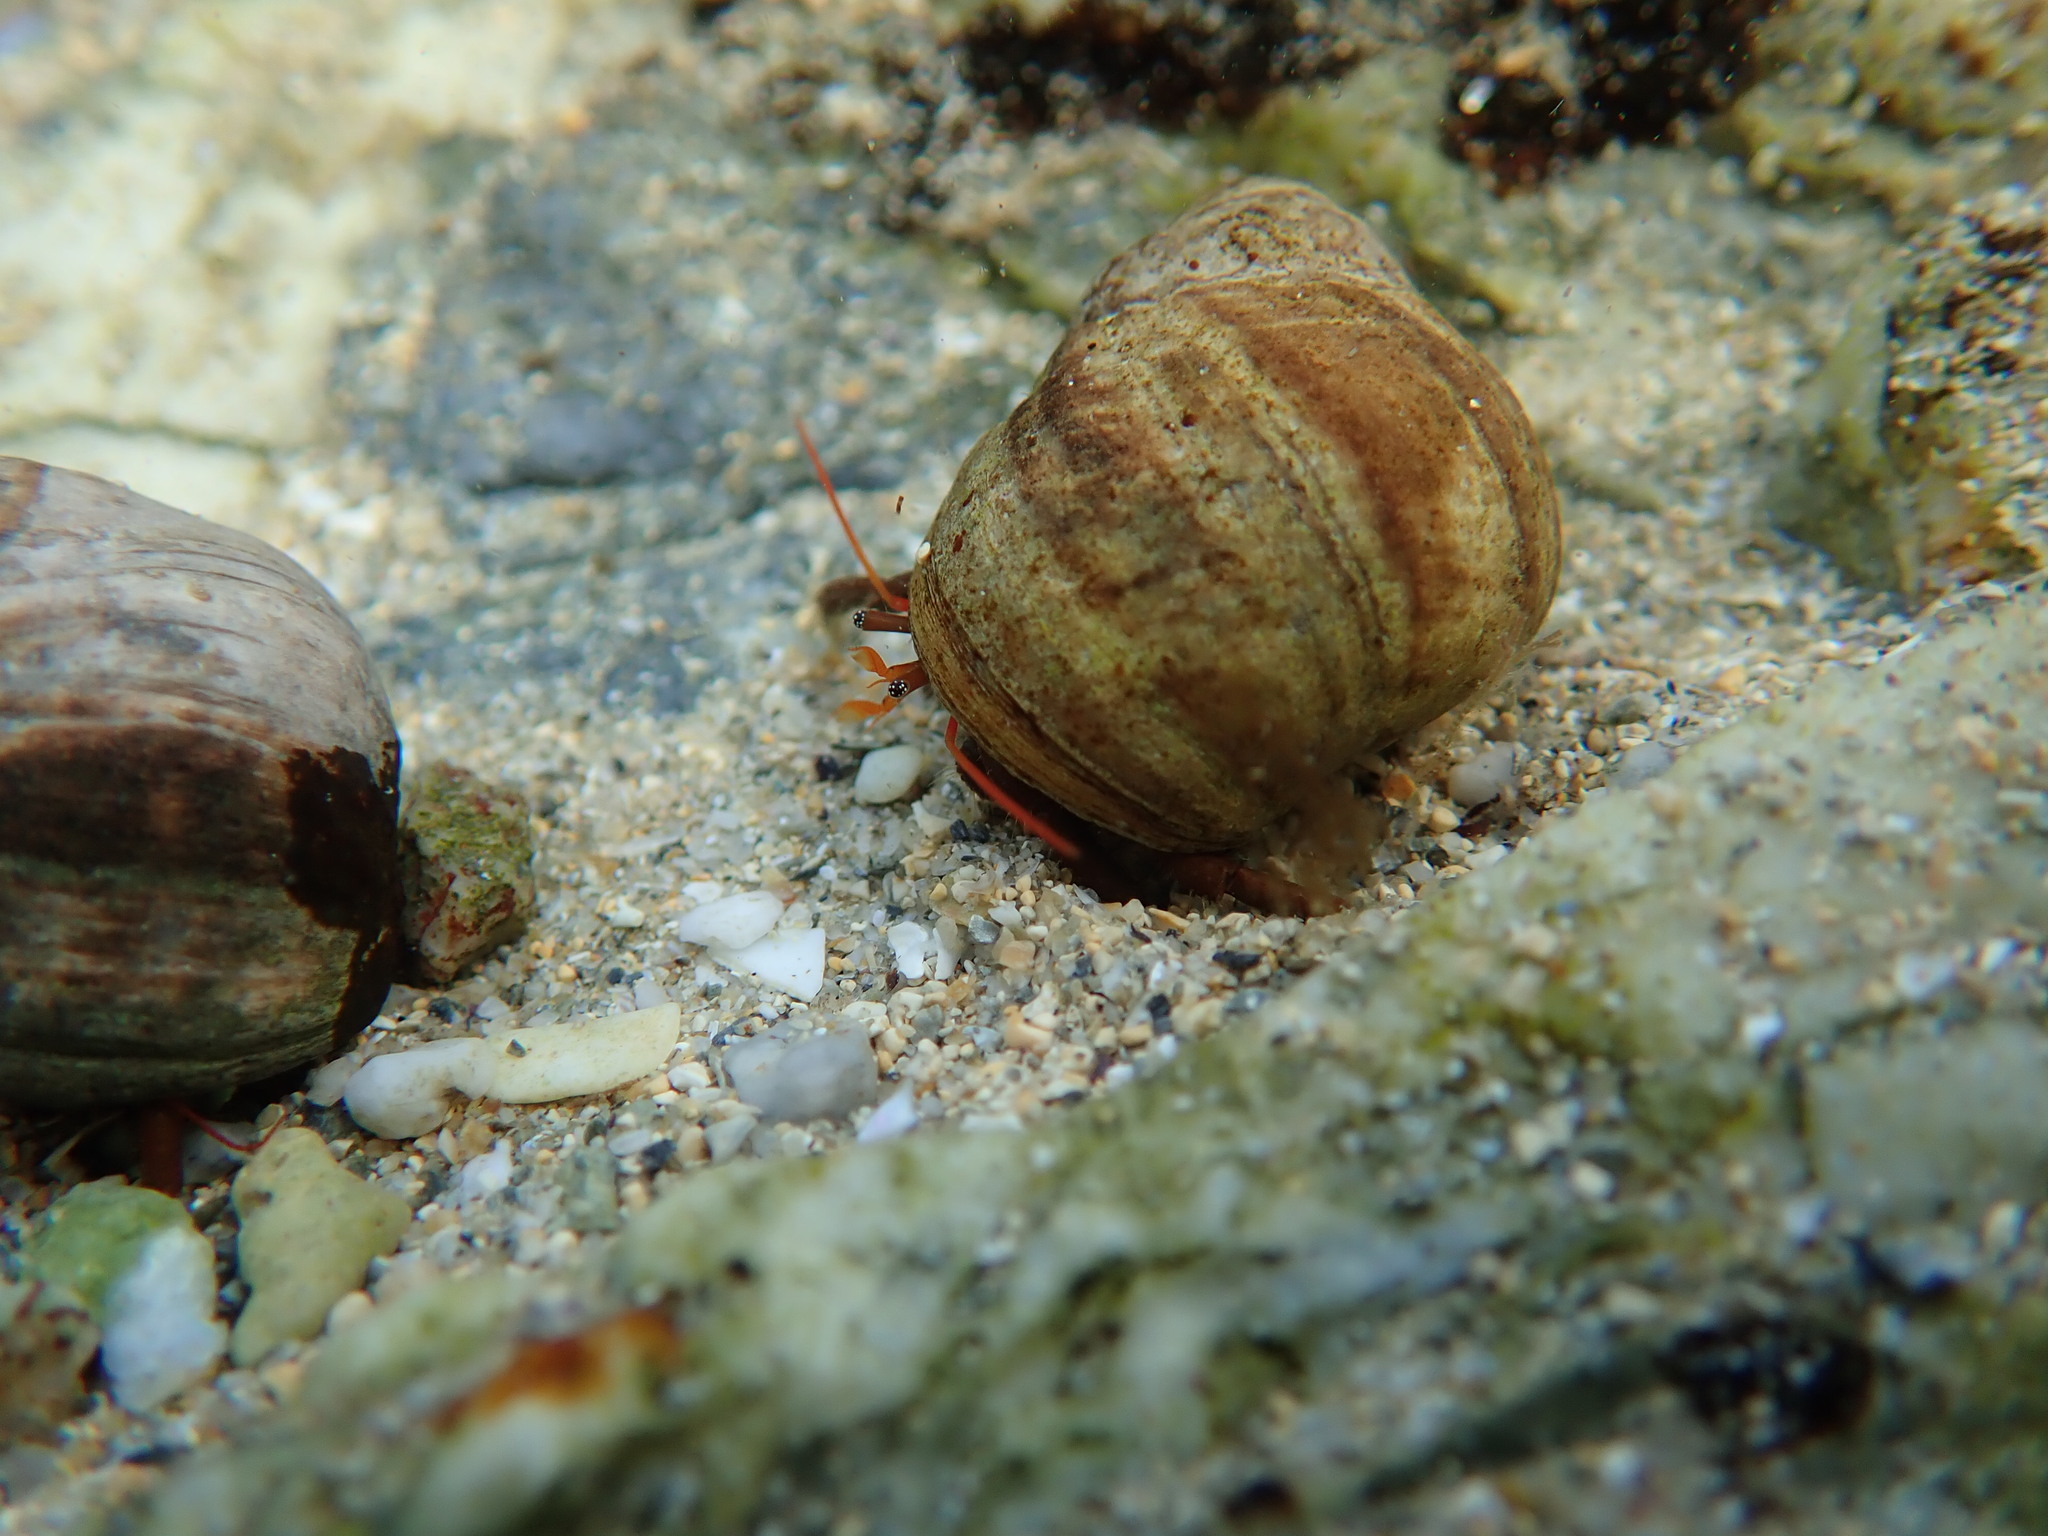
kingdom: Animalia
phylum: Arthropoda
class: Malacostraca
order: Decapoda
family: Diogenidae
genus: Clibanarius
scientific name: Clibanarius erythropus
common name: Hermit crab
